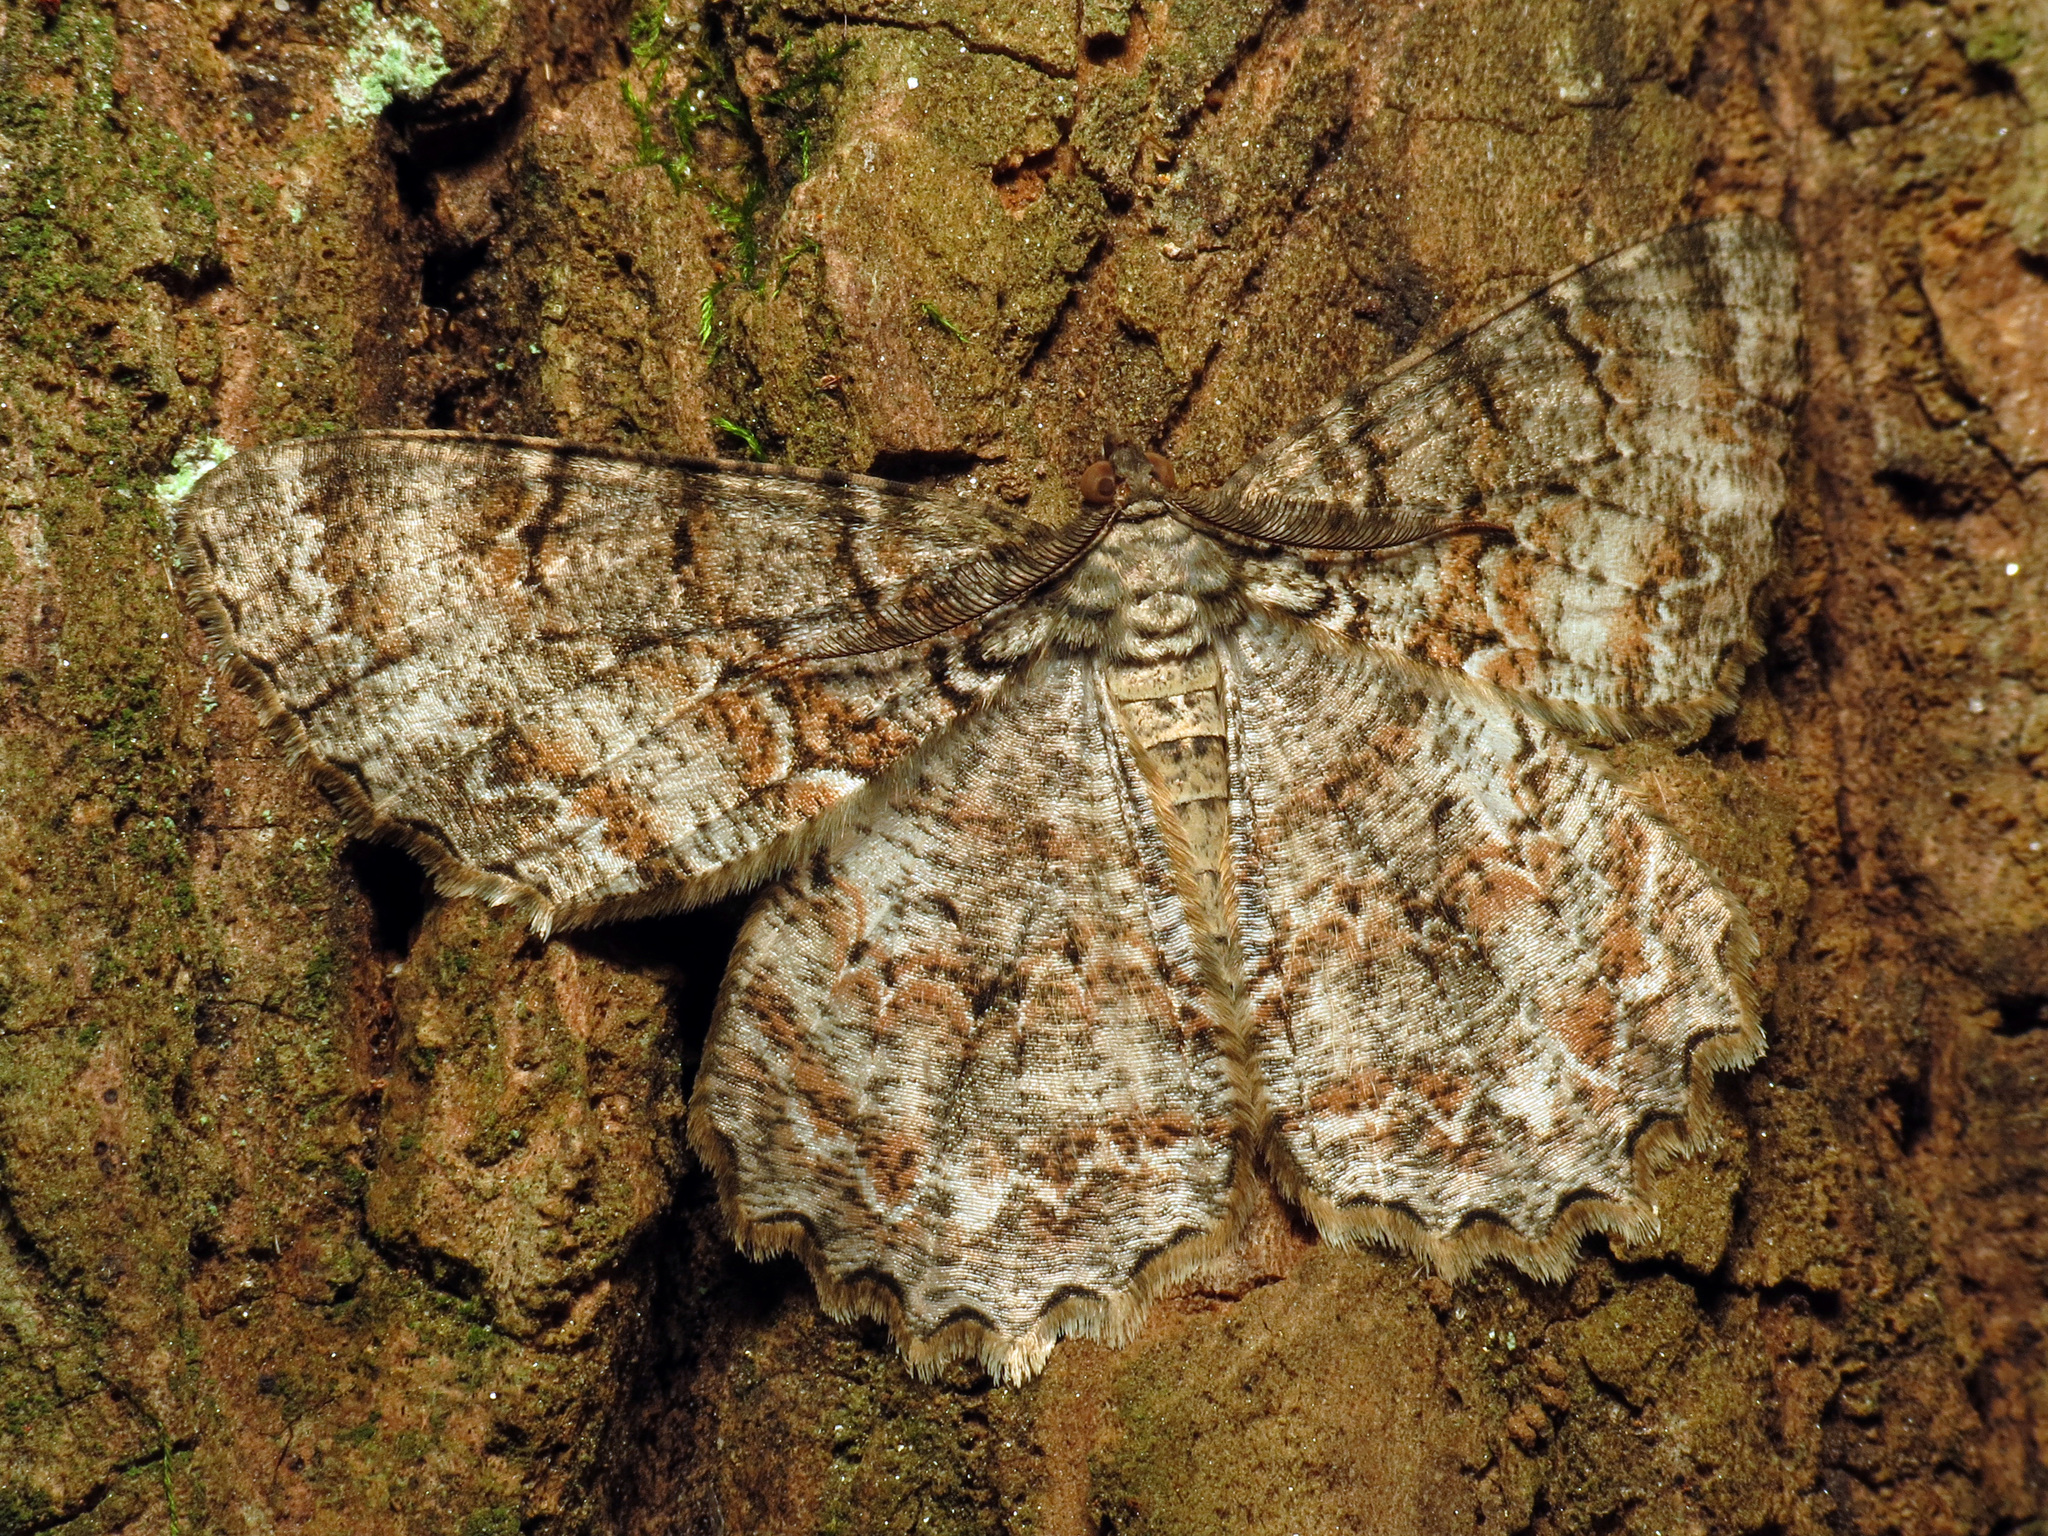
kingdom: Animalia
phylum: Arthropoda
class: Insecta
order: Lepidoptera
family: Geometridae
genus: Epimecis
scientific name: Epimecis hortaria
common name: Tulip-tree beauty
